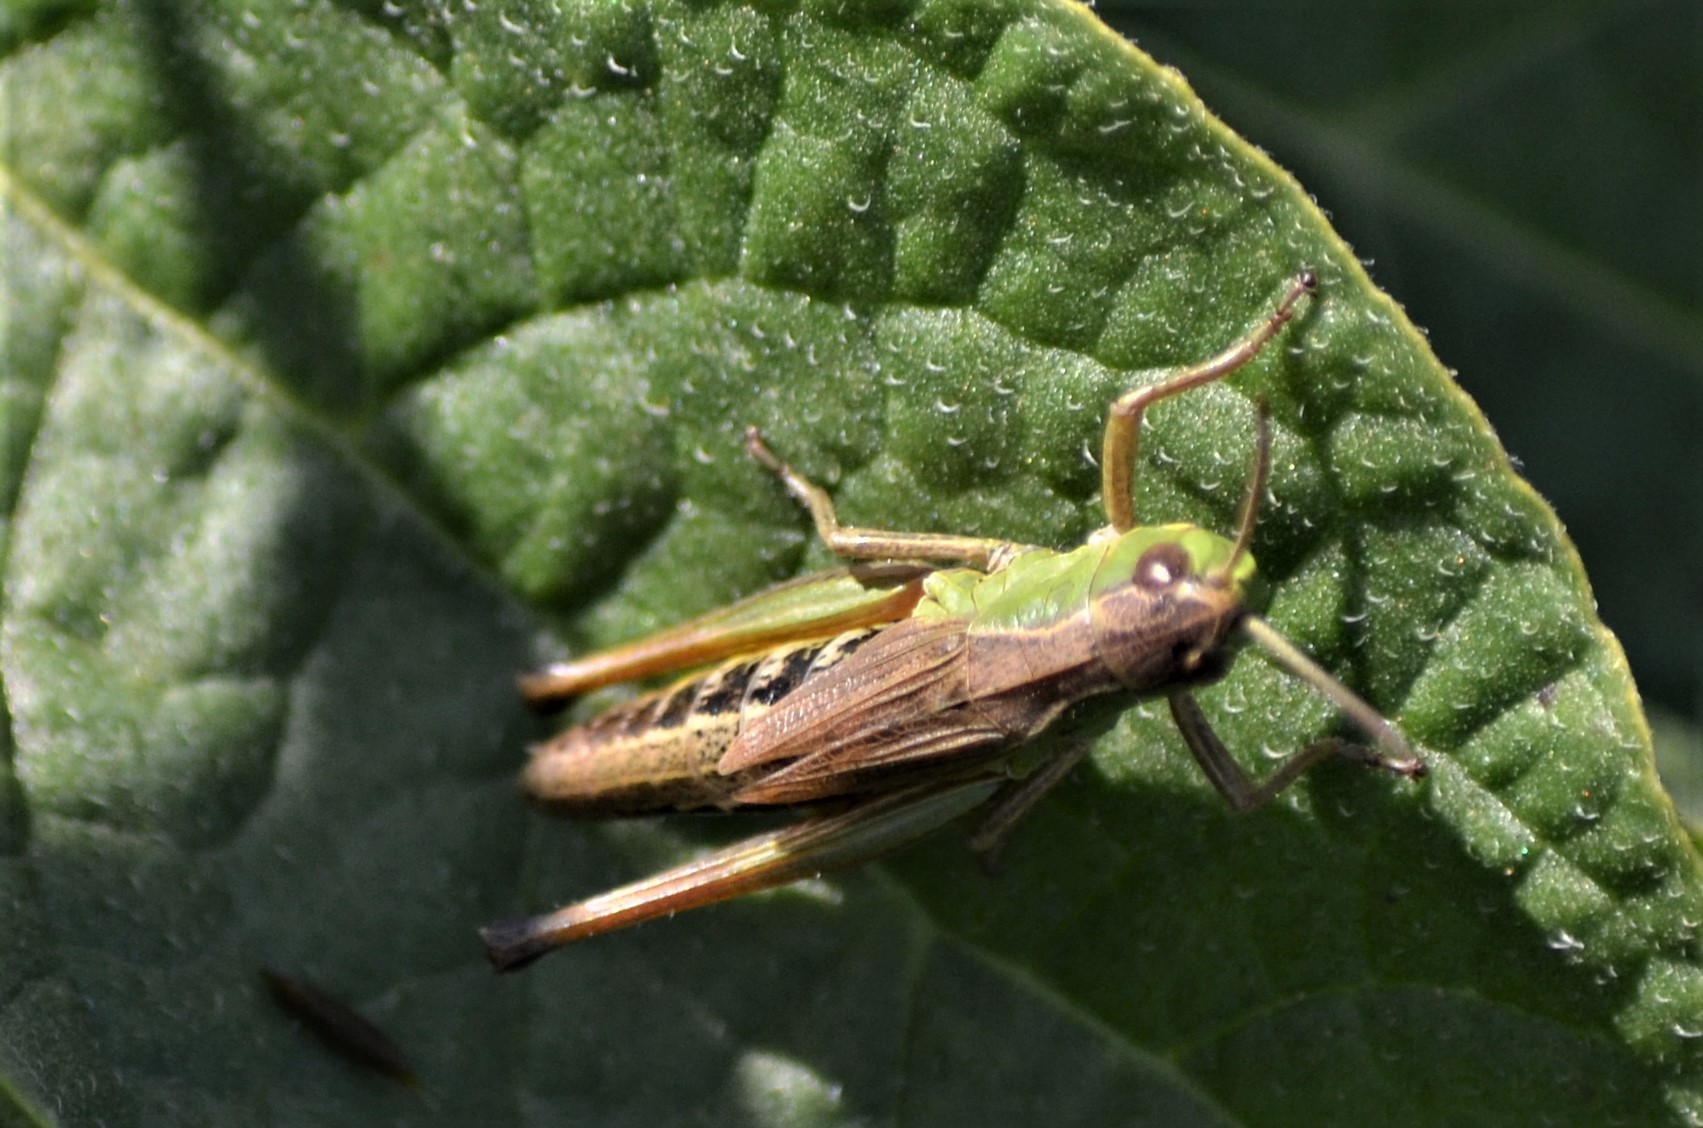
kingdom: Animalia
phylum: Arthropoda
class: Insecta
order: Orthoptera
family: Acrididae
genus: Pseudochorthippus
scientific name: Pseudochorthippus parallelus
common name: Meadow grasshopper
